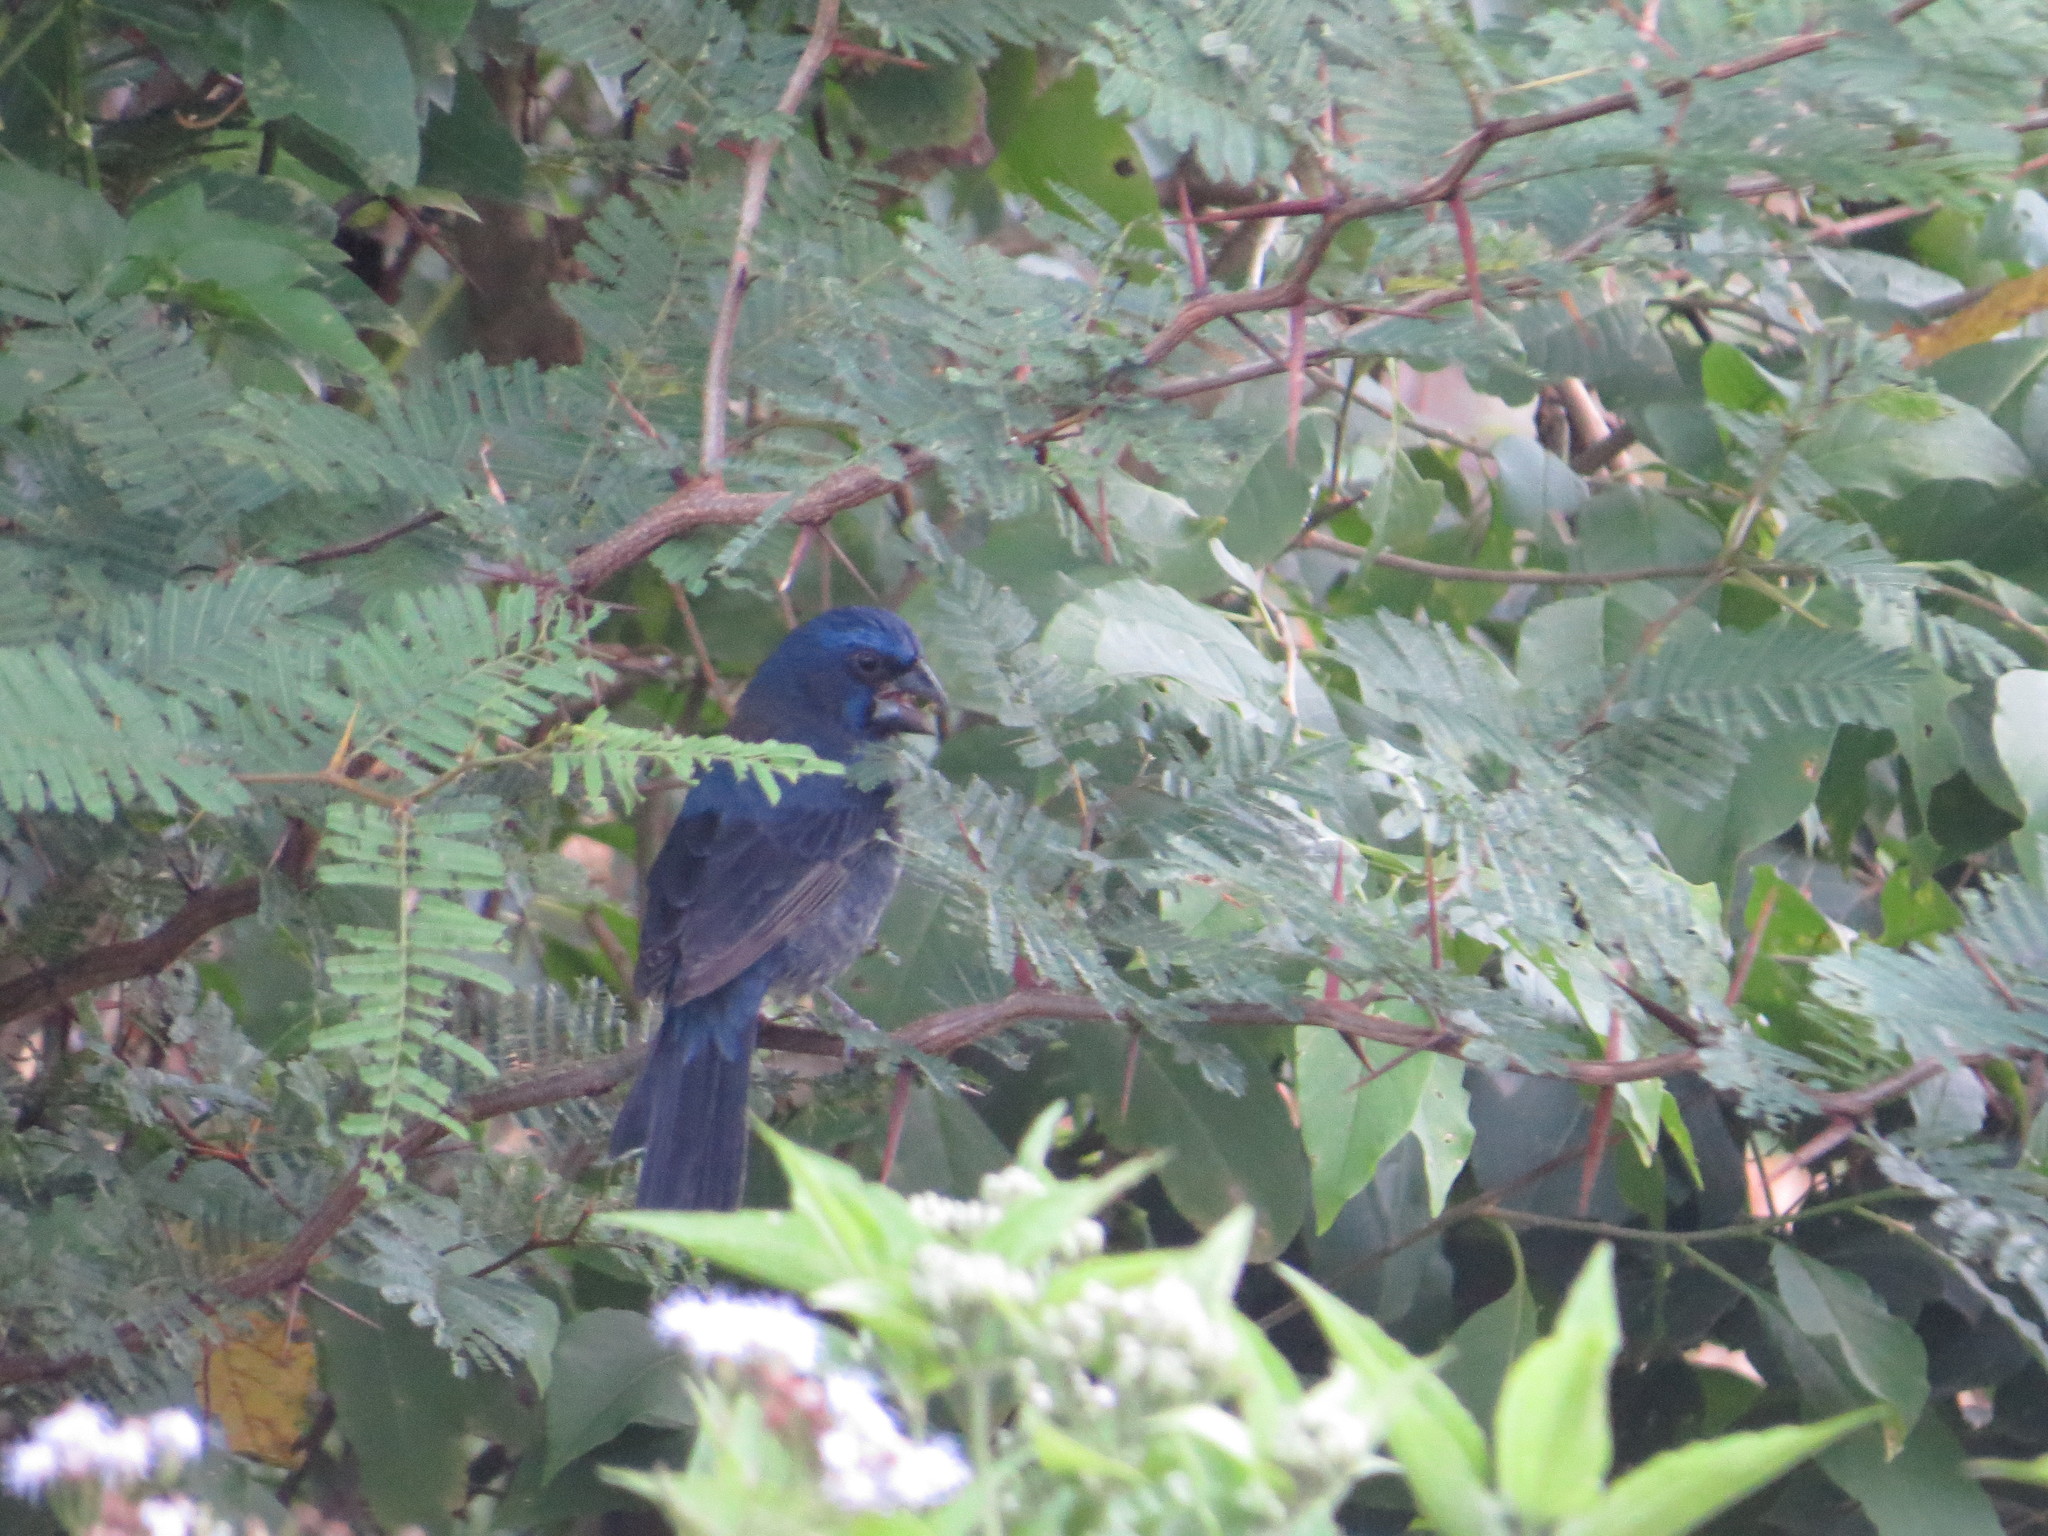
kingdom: Animalia
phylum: Chordata
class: Aves
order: Passeriformes
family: Cardinalidae
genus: Cyanoloxia
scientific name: Cyanoloxia brissonii
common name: Ultramarine grosbeak
